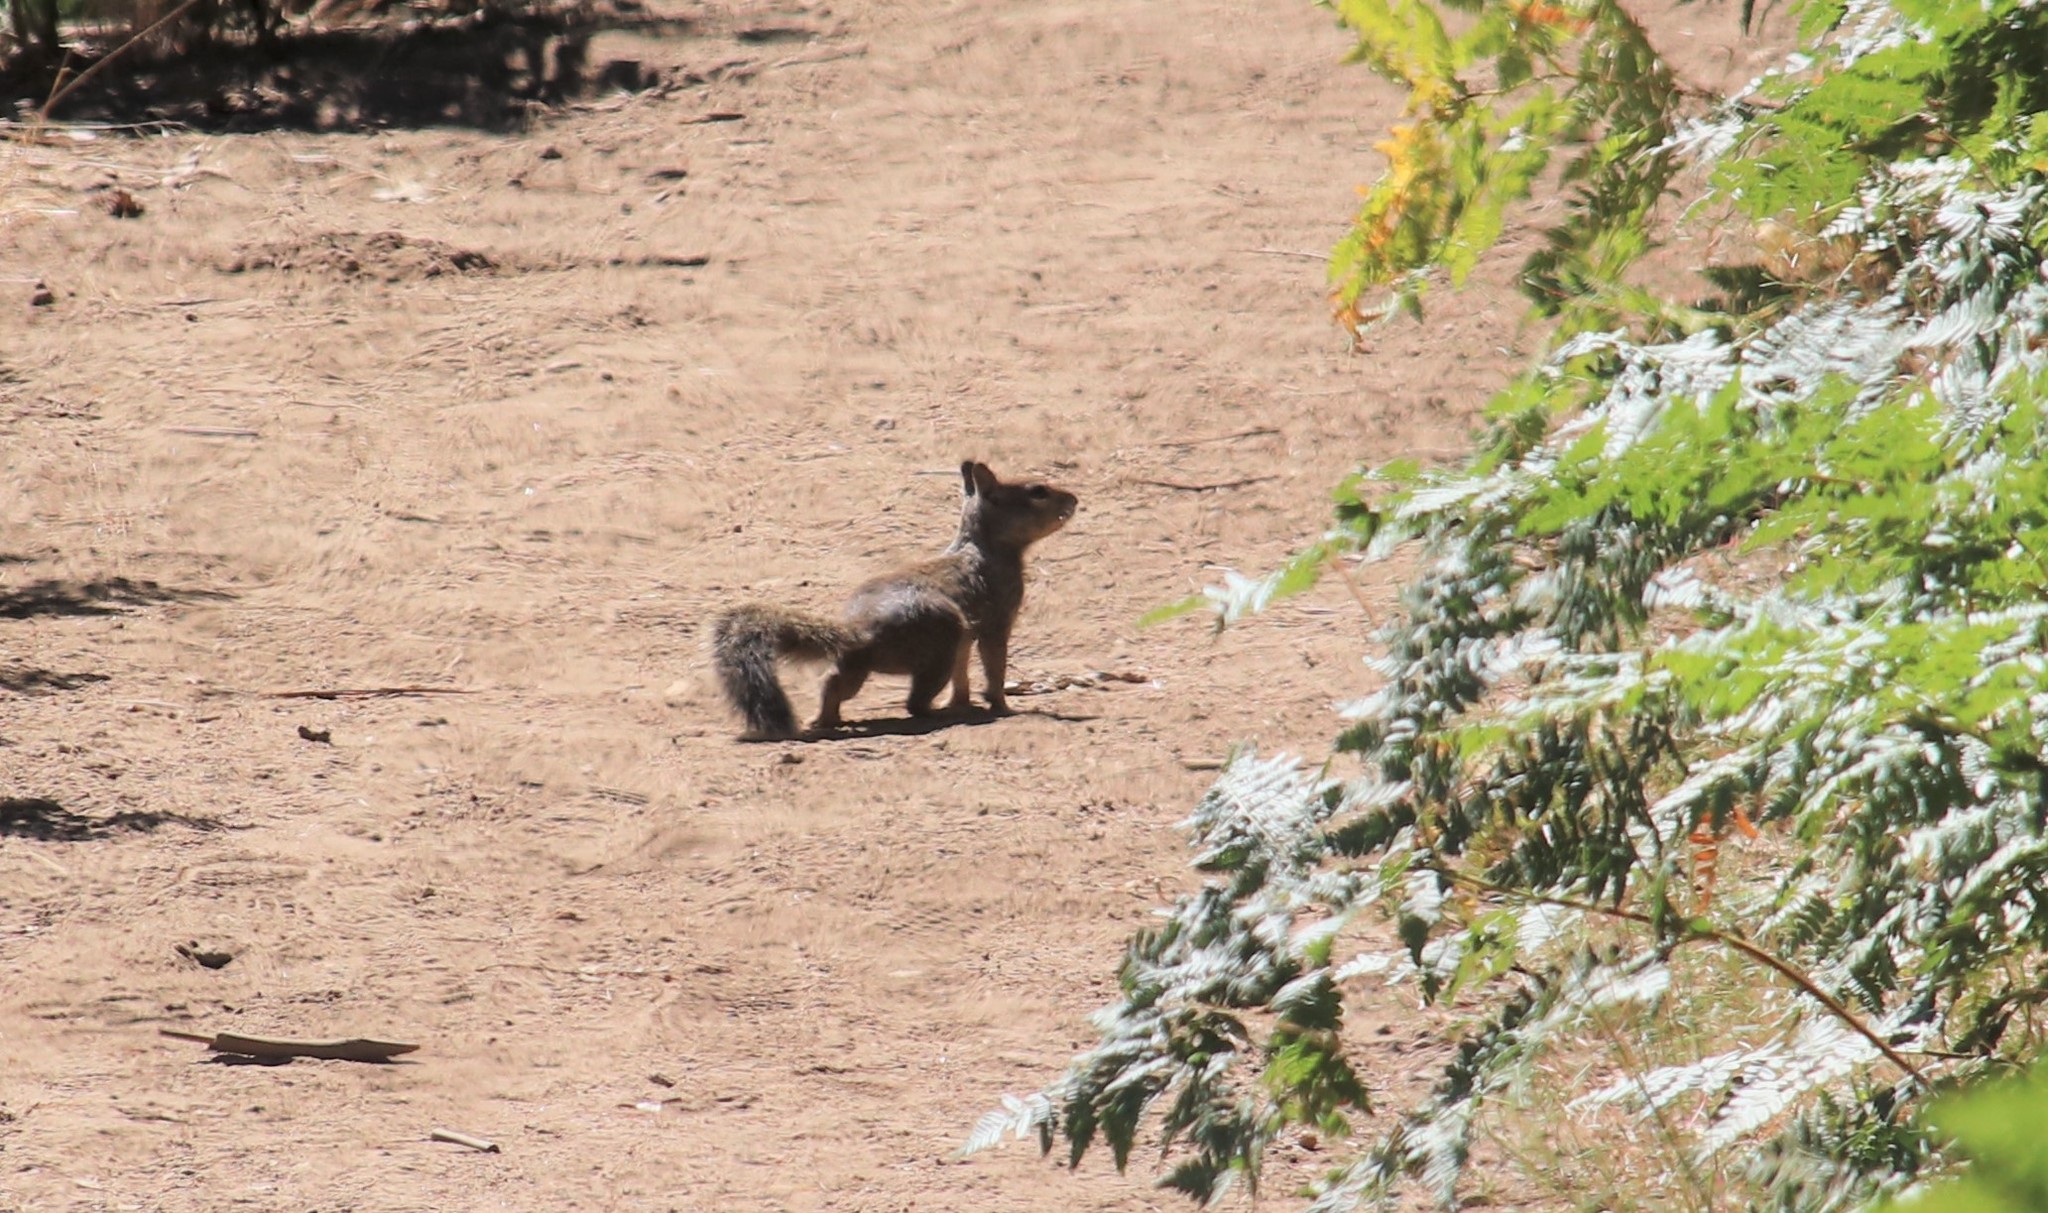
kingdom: Animalia
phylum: Chordata
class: Mammalia
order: Rodentia
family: Sciuridae
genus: Otospermophilus
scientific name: Otospermophilus beecheyi
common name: California ground squirrel
